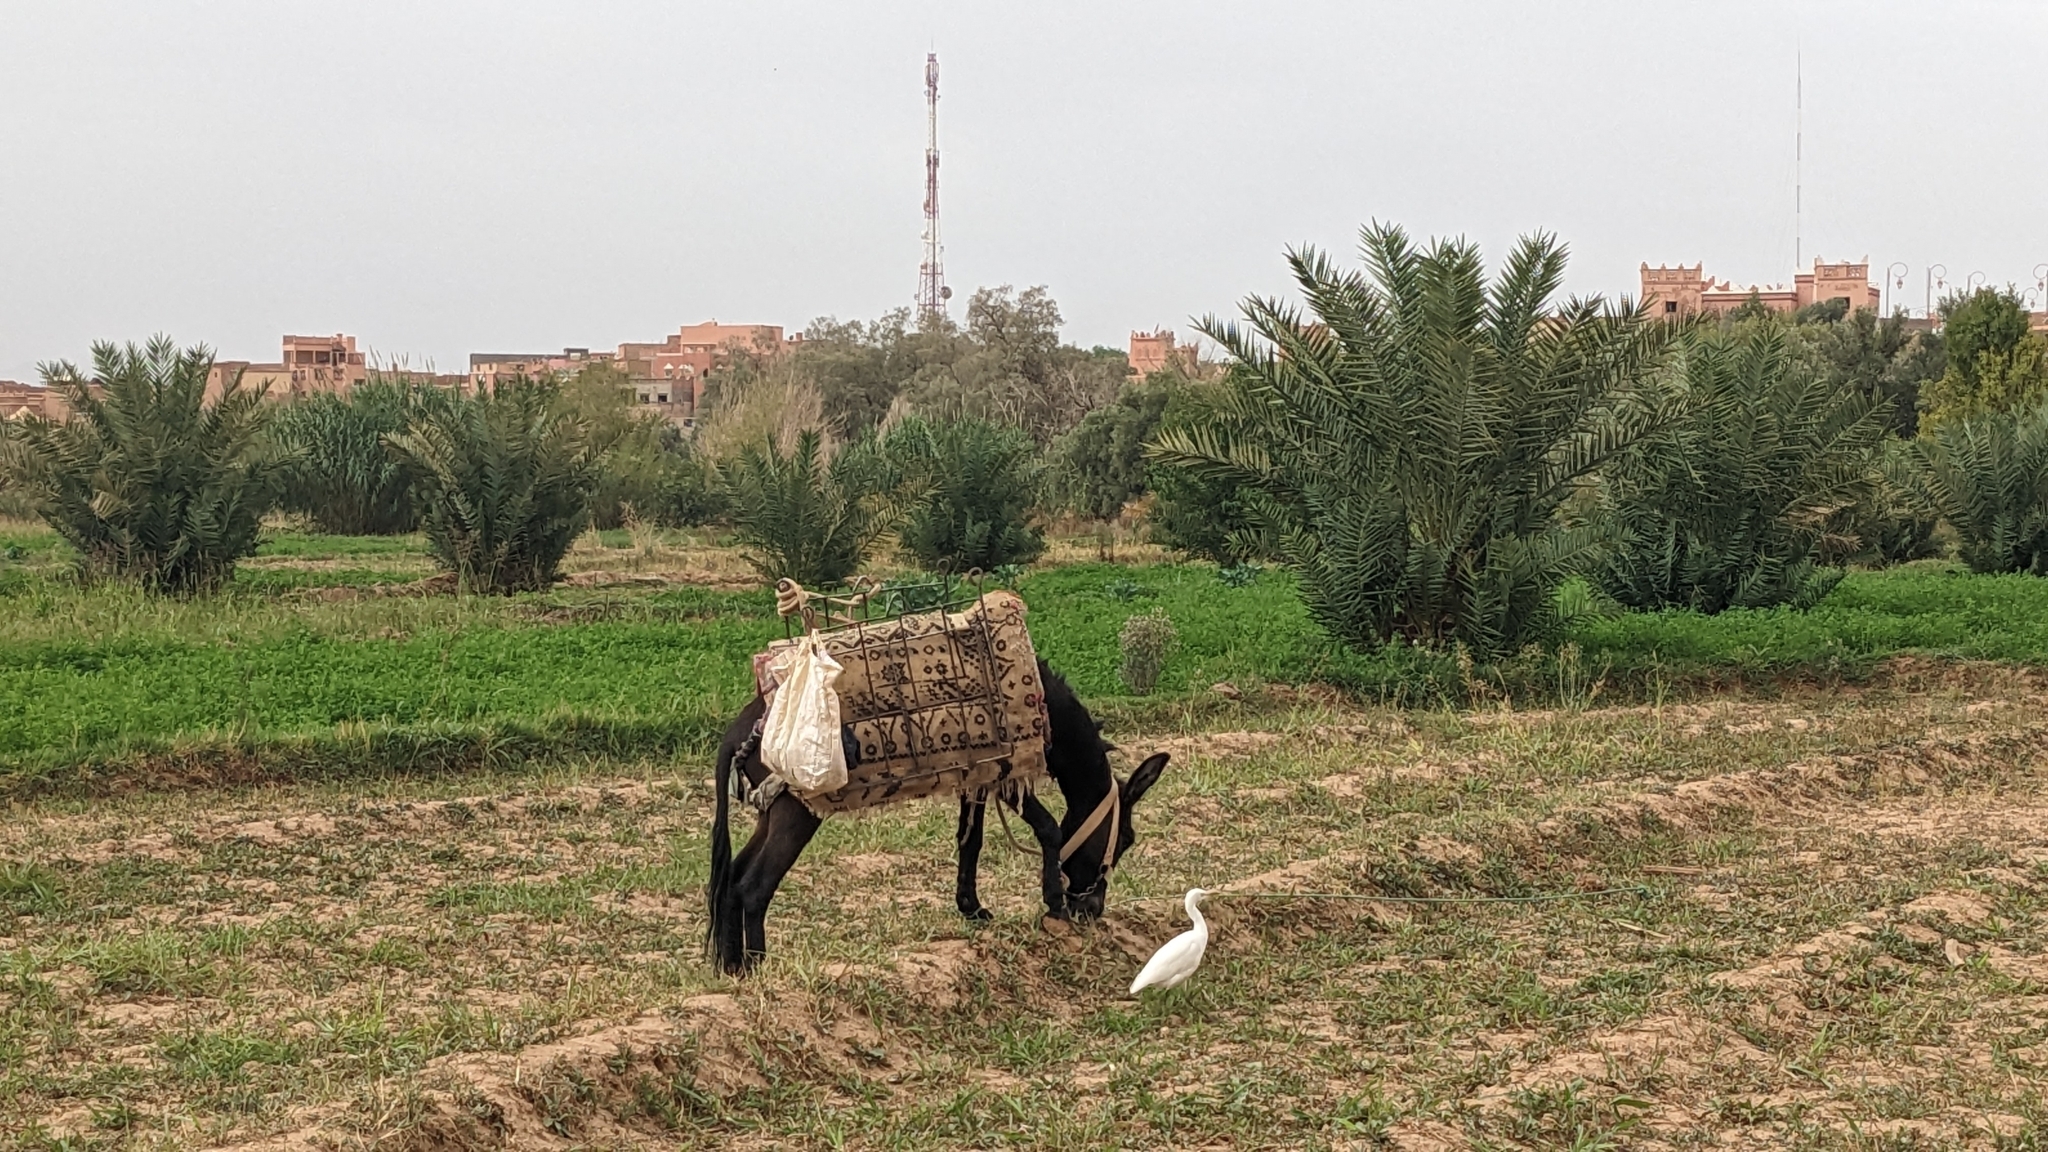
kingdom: Animalia
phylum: Chordata
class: Aves
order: Pelecaniformes
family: Ardeidae
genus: Bubulcus
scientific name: Bubulcus ibis
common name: Cattle egret
